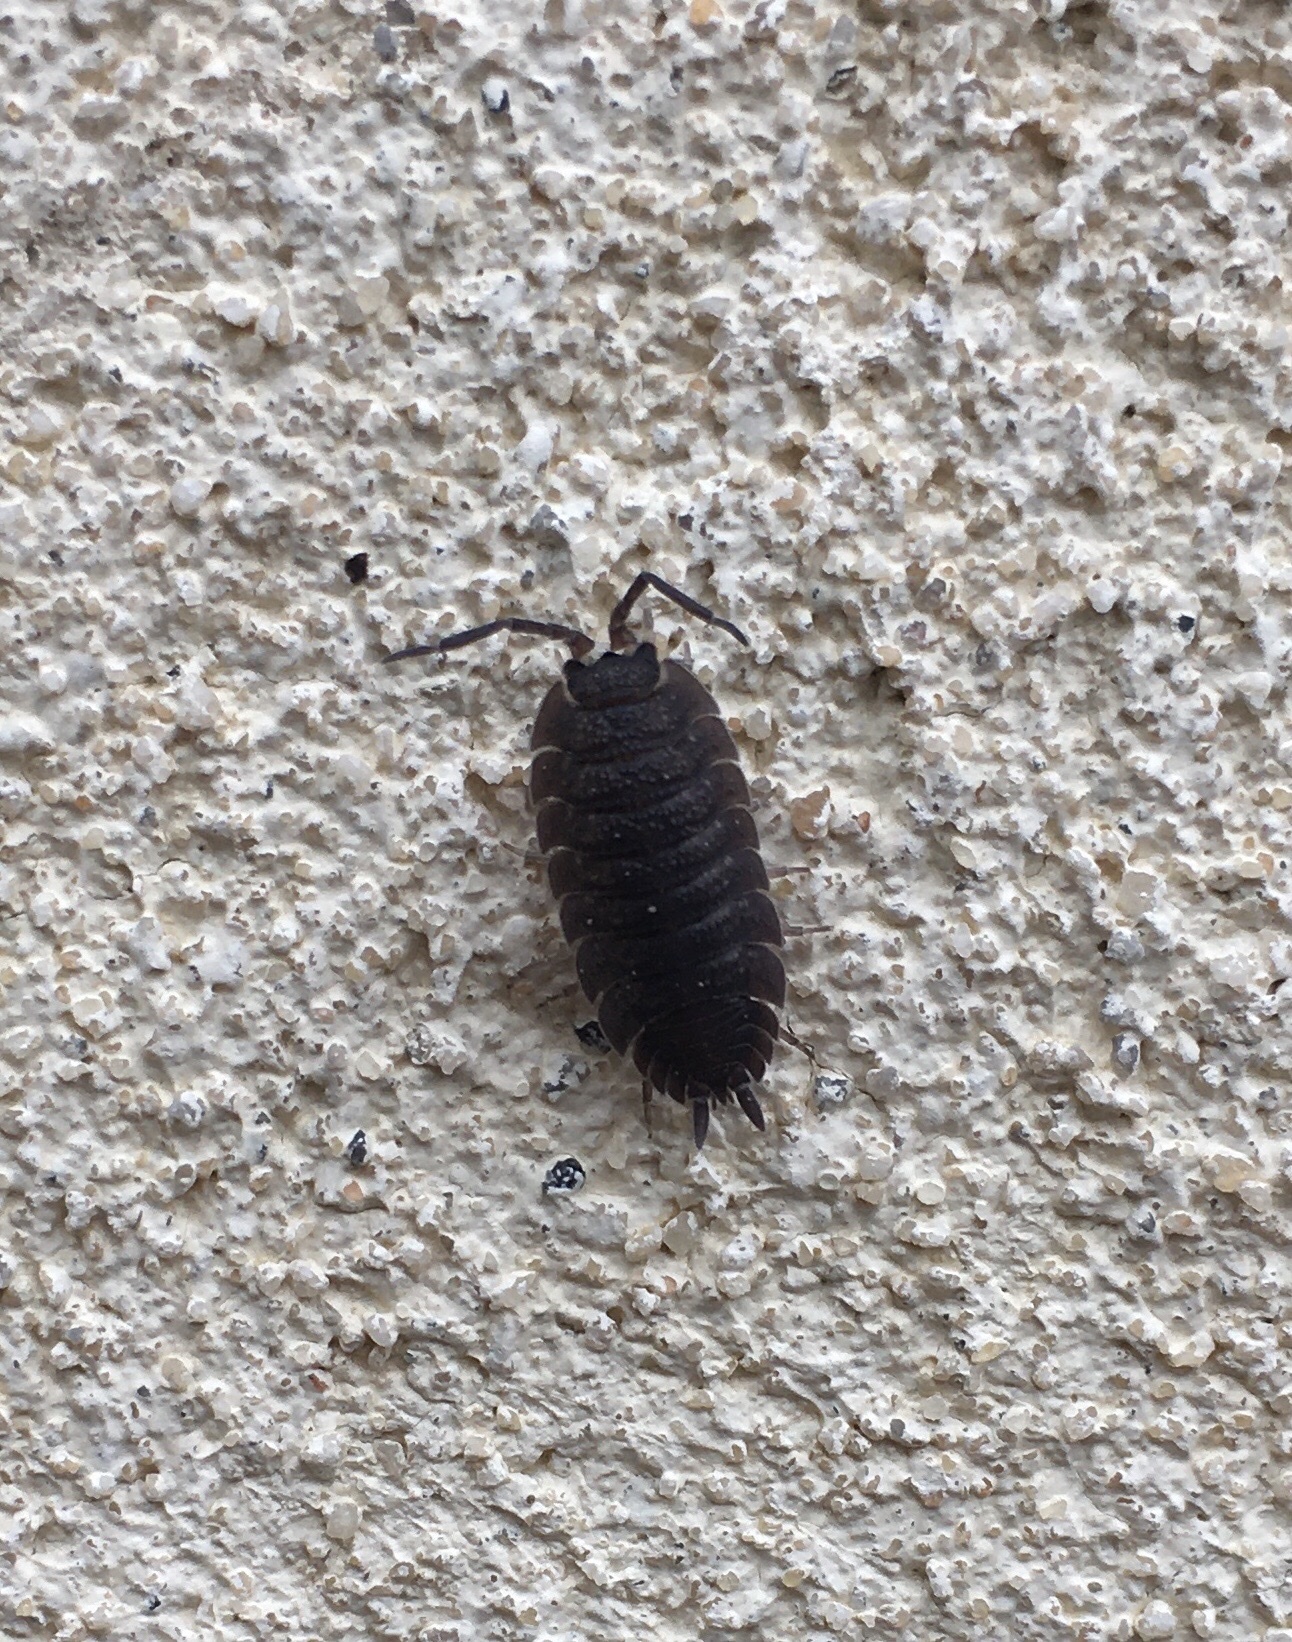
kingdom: Animalia
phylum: Arthropoda
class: Malacostraca
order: Isopoda
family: Porcellionidae
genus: Porcellio
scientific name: Porcellio scaber
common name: Common rough woodlouse
